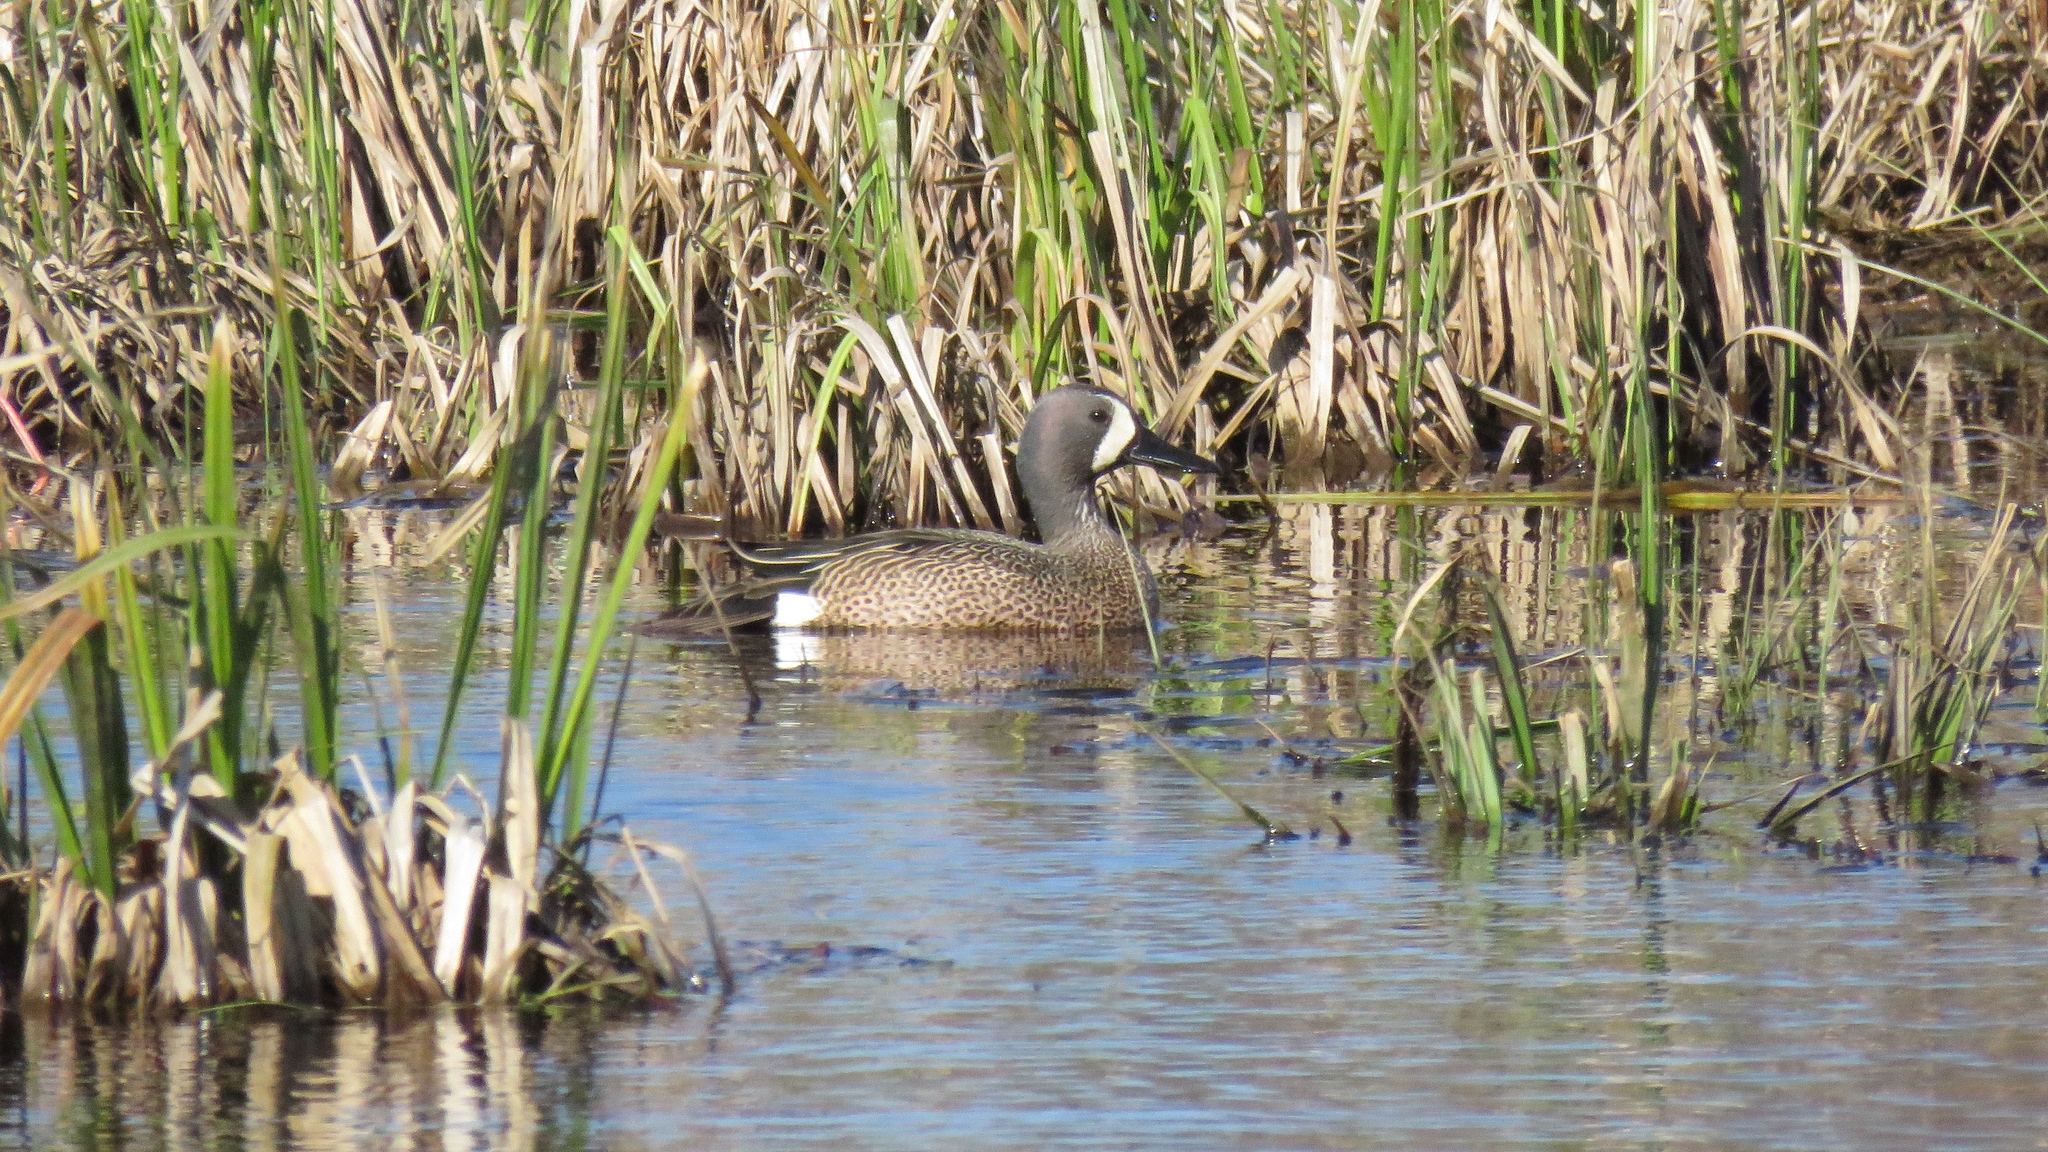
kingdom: Animalia
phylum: Chordata
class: Aves
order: Anseriformes
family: Anatidae
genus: Spatula
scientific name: Spatula discors
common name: Blue-winged teal
